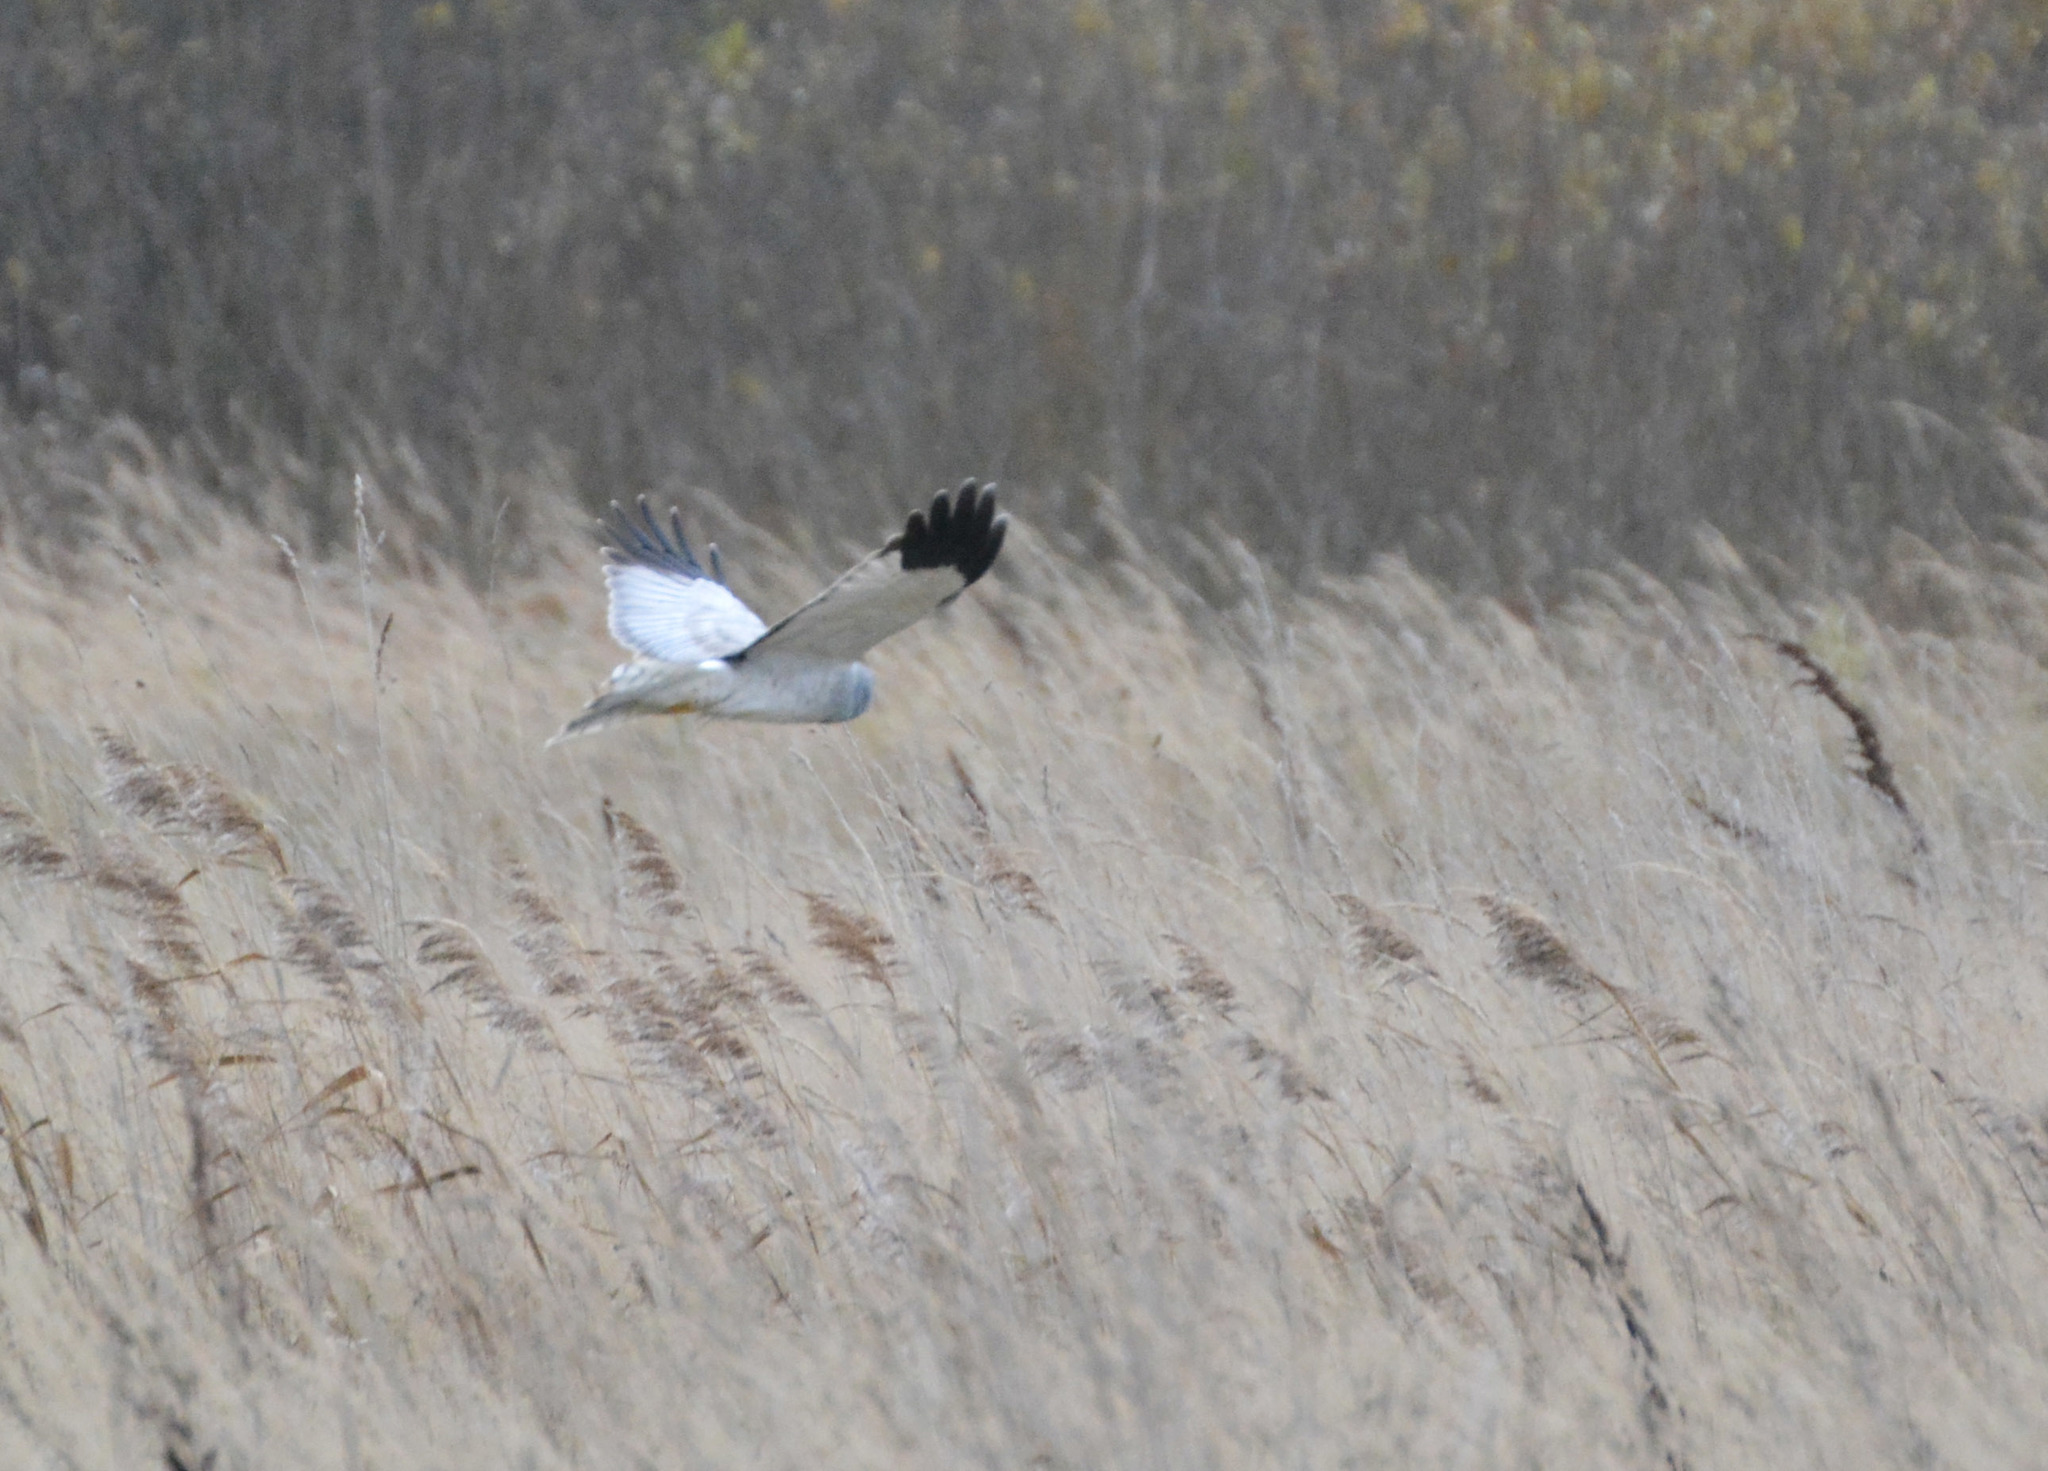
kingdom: Animalia
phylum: Chordata
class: Aves
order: Accipitriformes
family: Accipitridae
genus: Circus
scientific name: Circus cyaneus
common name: Hen harrier
